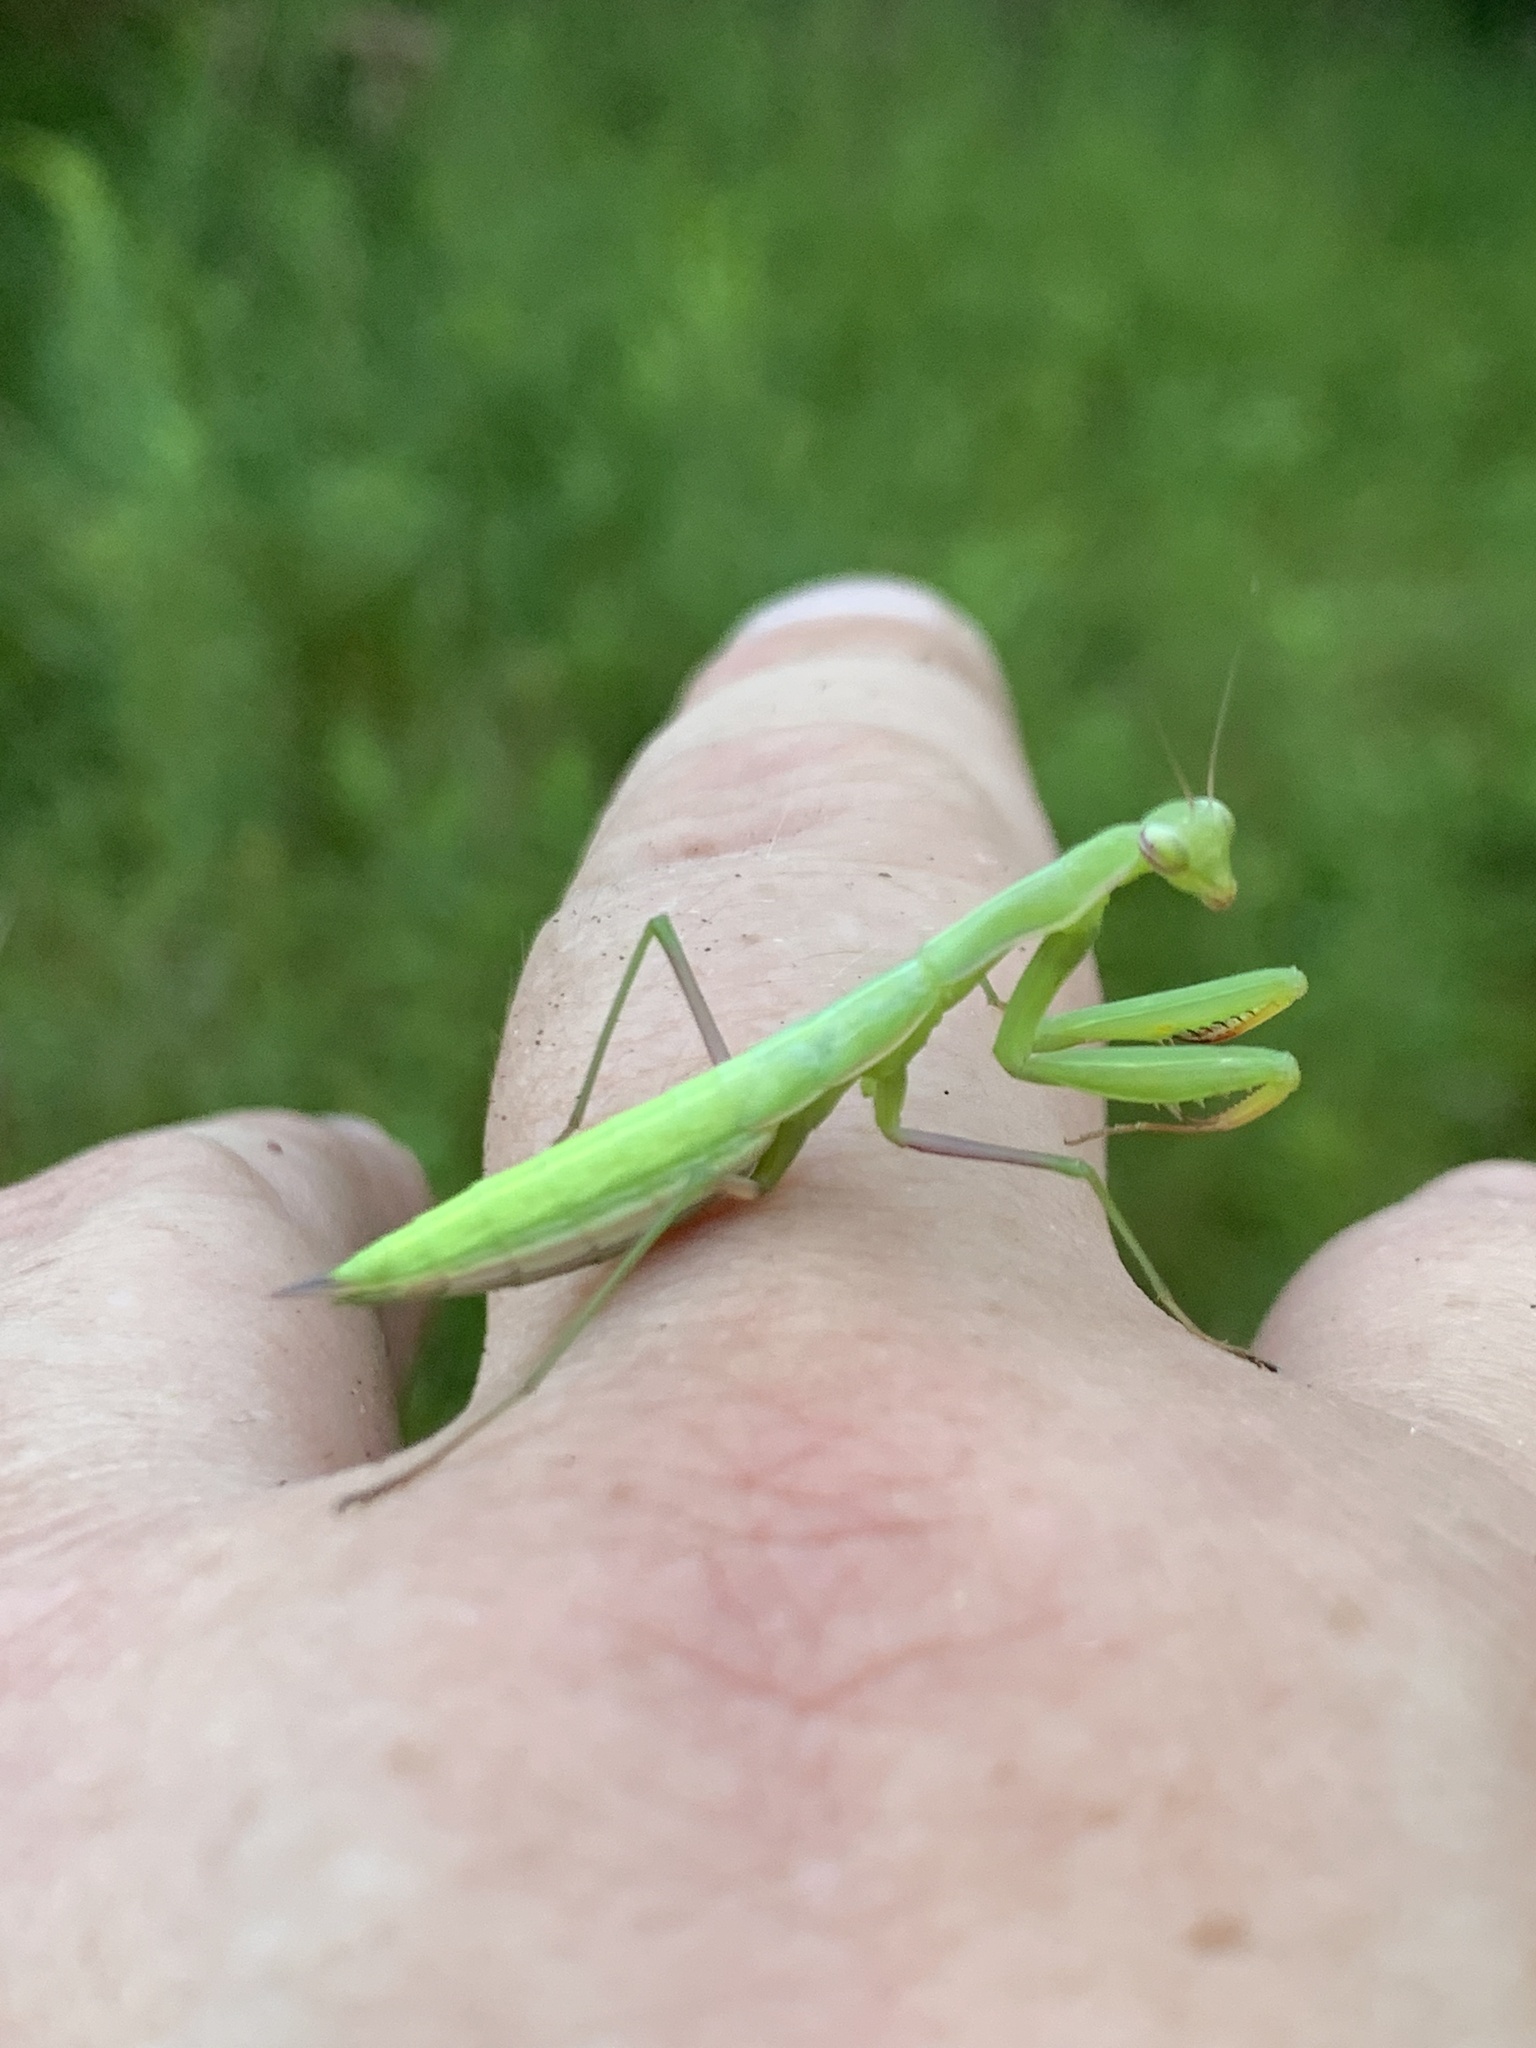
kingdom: Animalia
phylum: Arthropoda
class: Insecta
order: Mantodea
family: Mantidae
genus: Mantis
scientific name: Mantis religiosa
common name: Praying mantis
